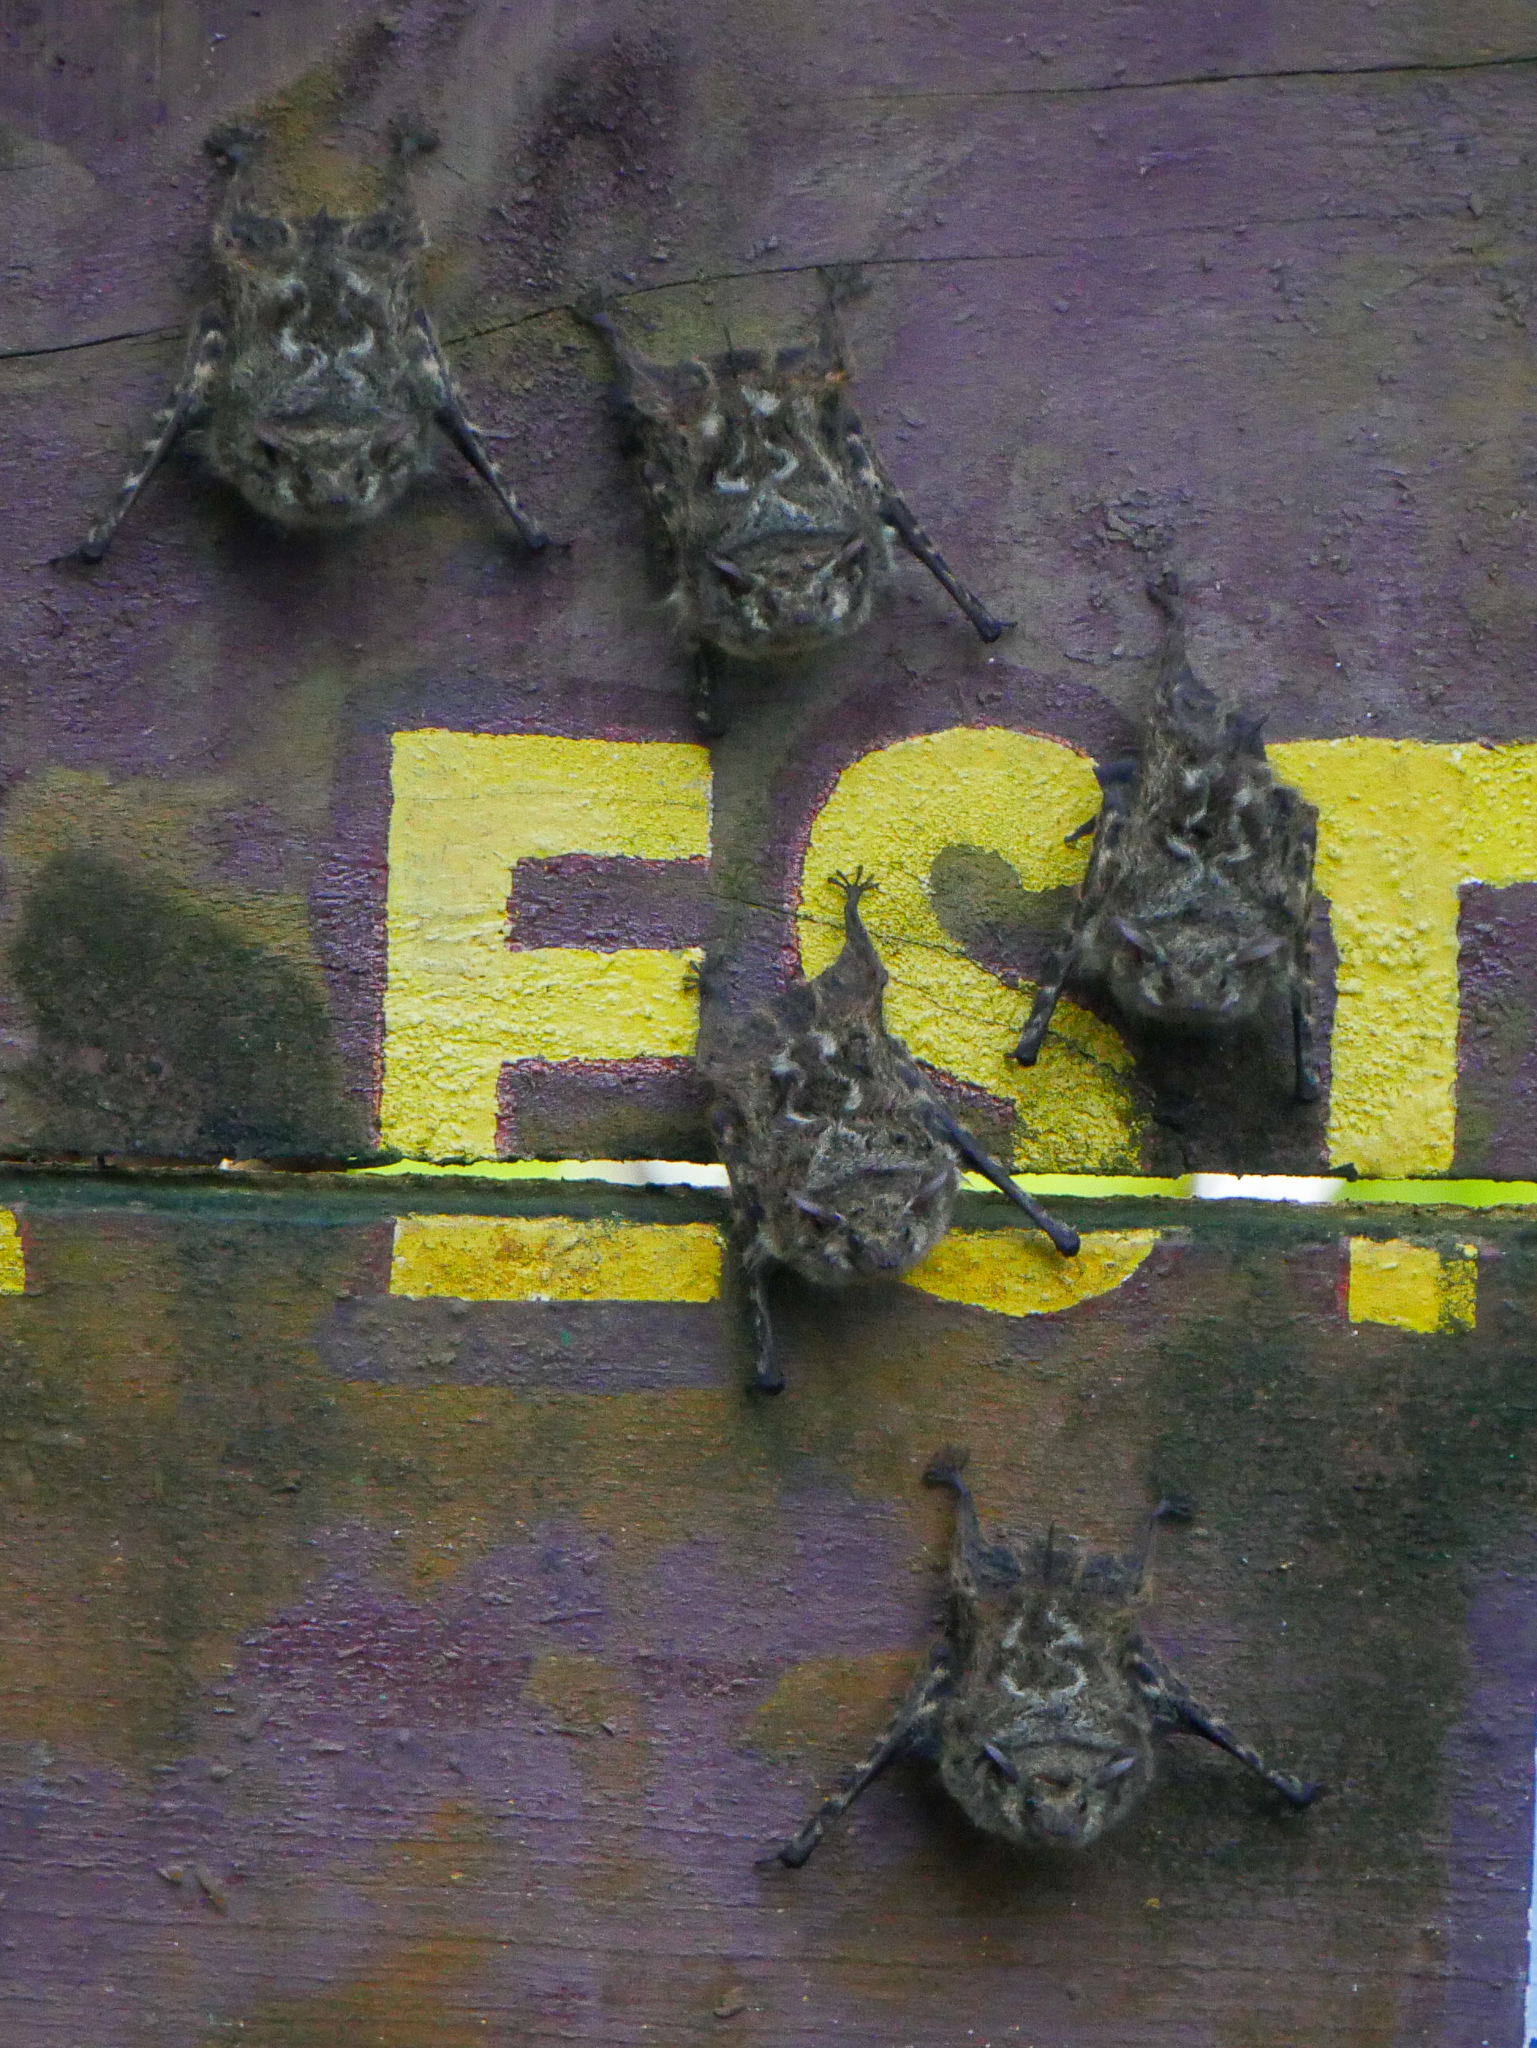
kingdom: Animalia
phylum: Chordata
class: Mammalia
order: Chiroptera
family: Emballonuridae
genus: Rhynchonycteris
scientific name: Rhynchonycteris naso
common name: Proboscis bat
